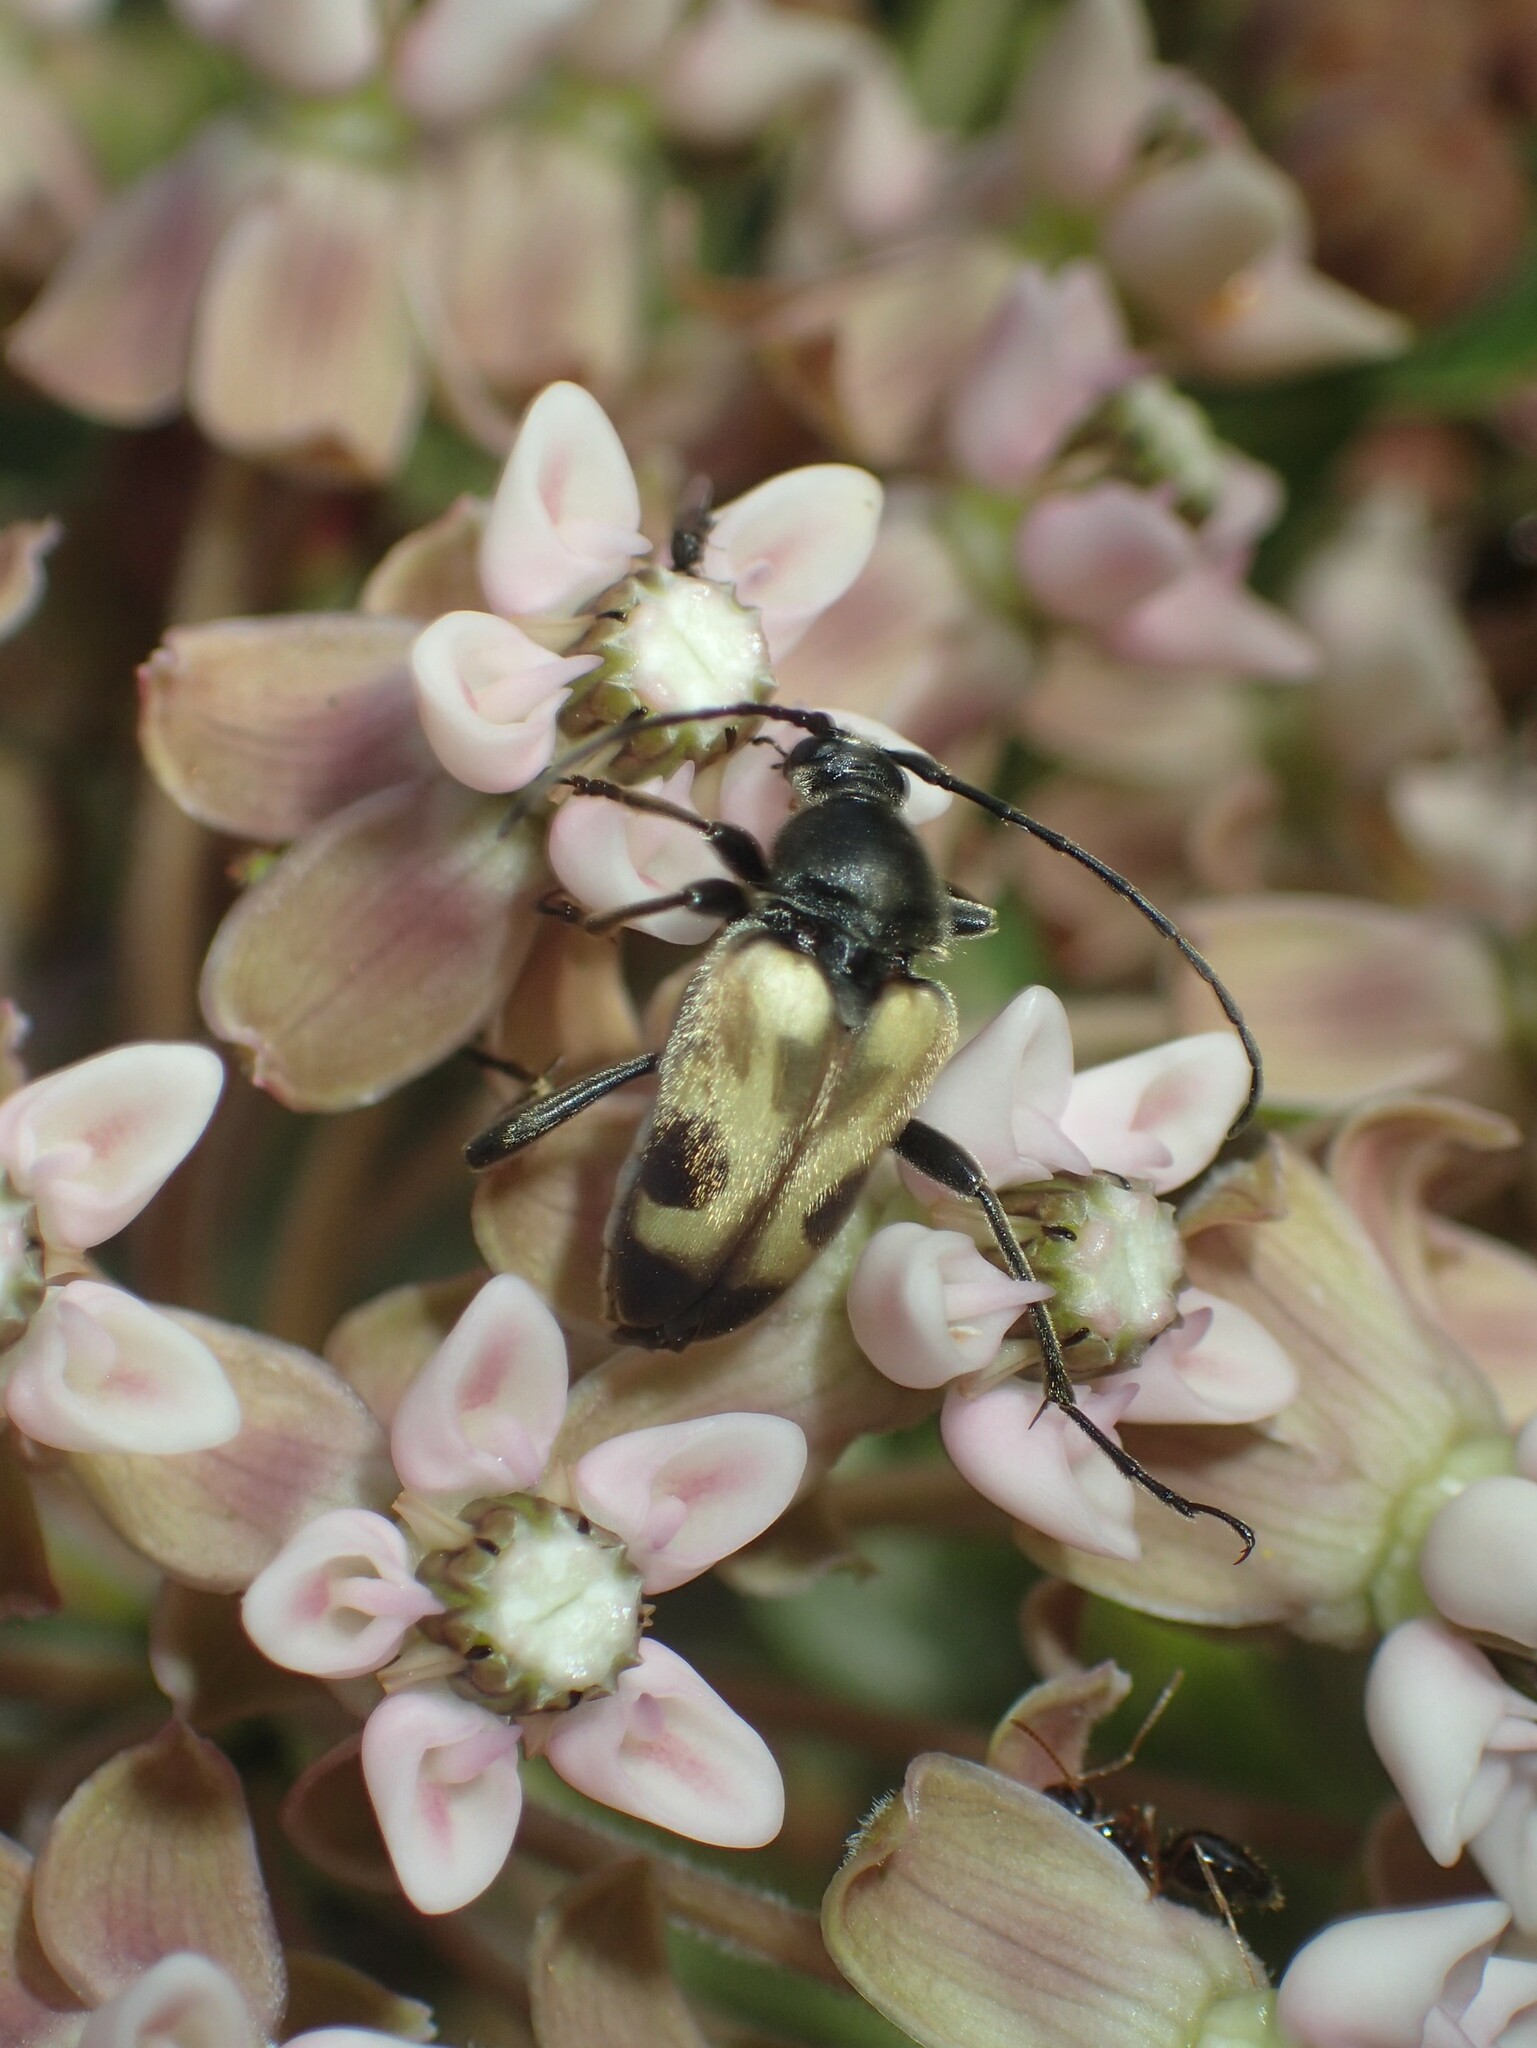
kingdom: Animalia
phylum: Arthropoda
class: Insecta
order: Coleoptera
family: Cerambycidae
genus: Judolia
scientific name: Judolia cordifera
